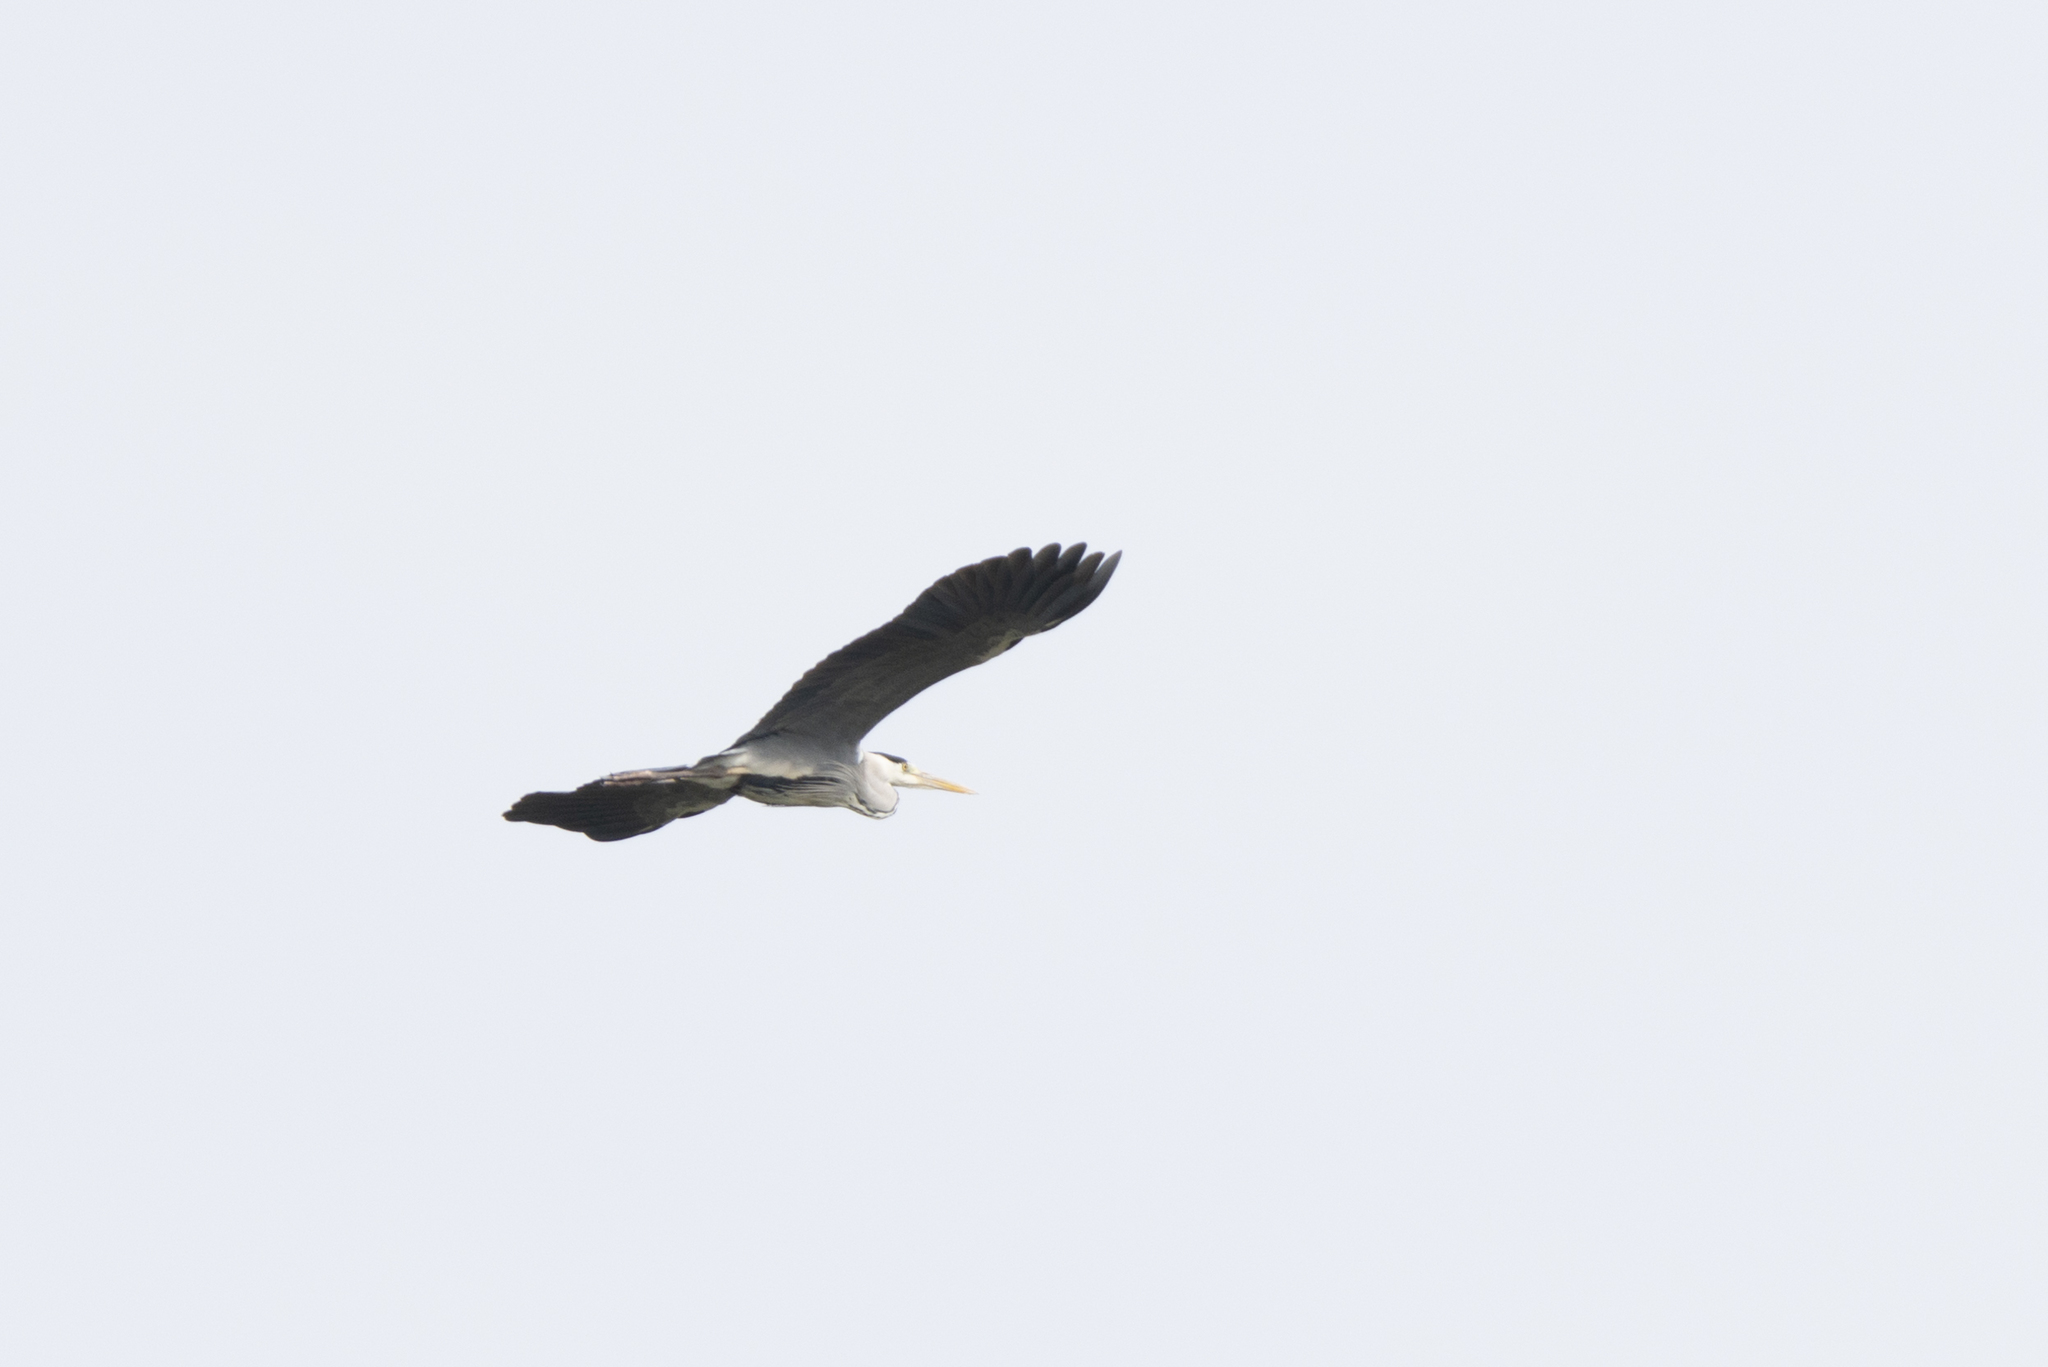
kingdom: Animalia
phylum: Chordata
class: Aves
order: Pelecaniformes
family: Ardeidae
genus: Ardea
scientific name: Ardea cinerea
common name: Grey heron
